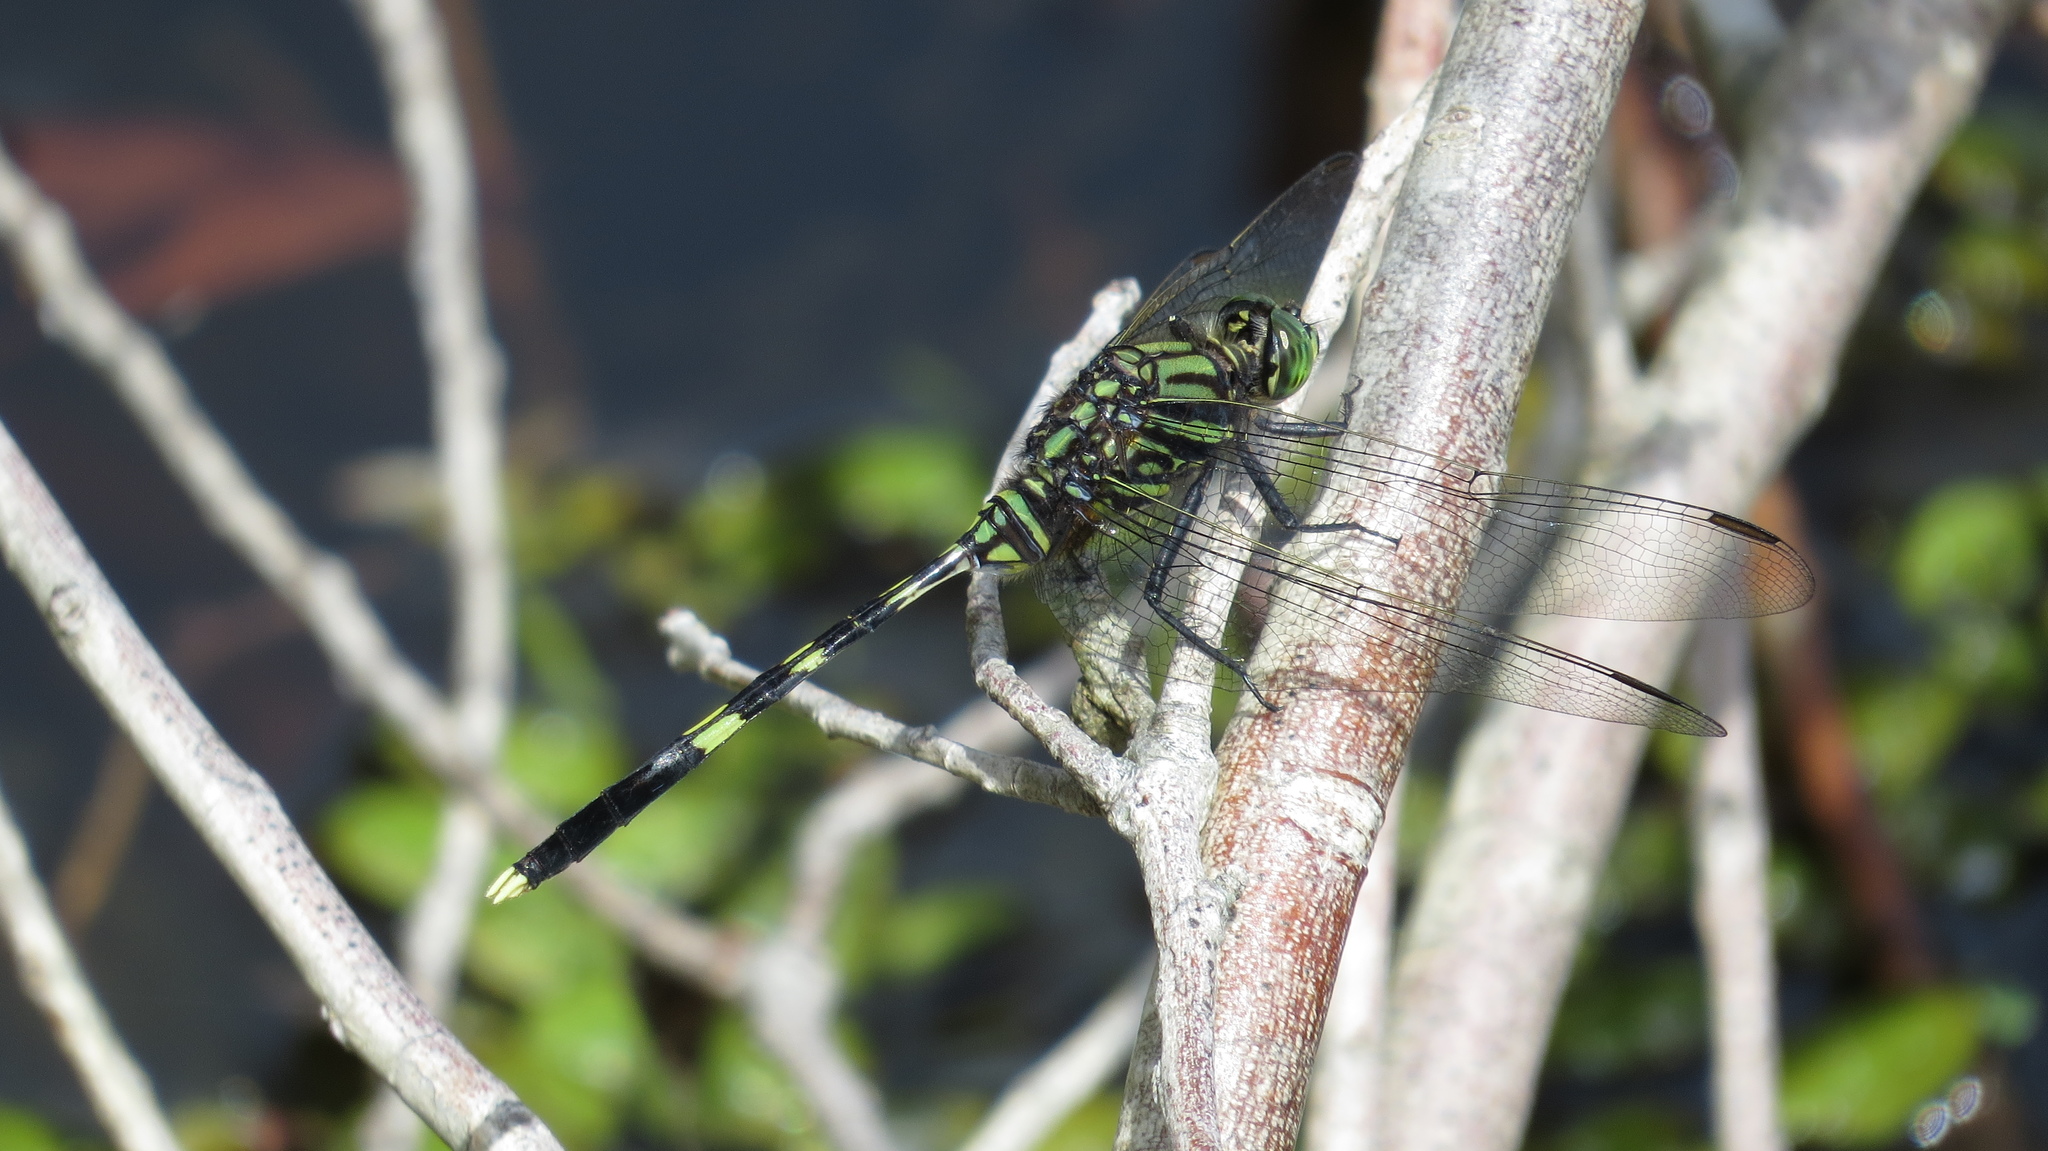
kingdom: Animalia
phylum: Arthropoda
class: Insecta
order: Odonata
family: Libellulidae
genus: Orthetrum
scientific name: Orthetrum serapia
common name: Green skimmer
